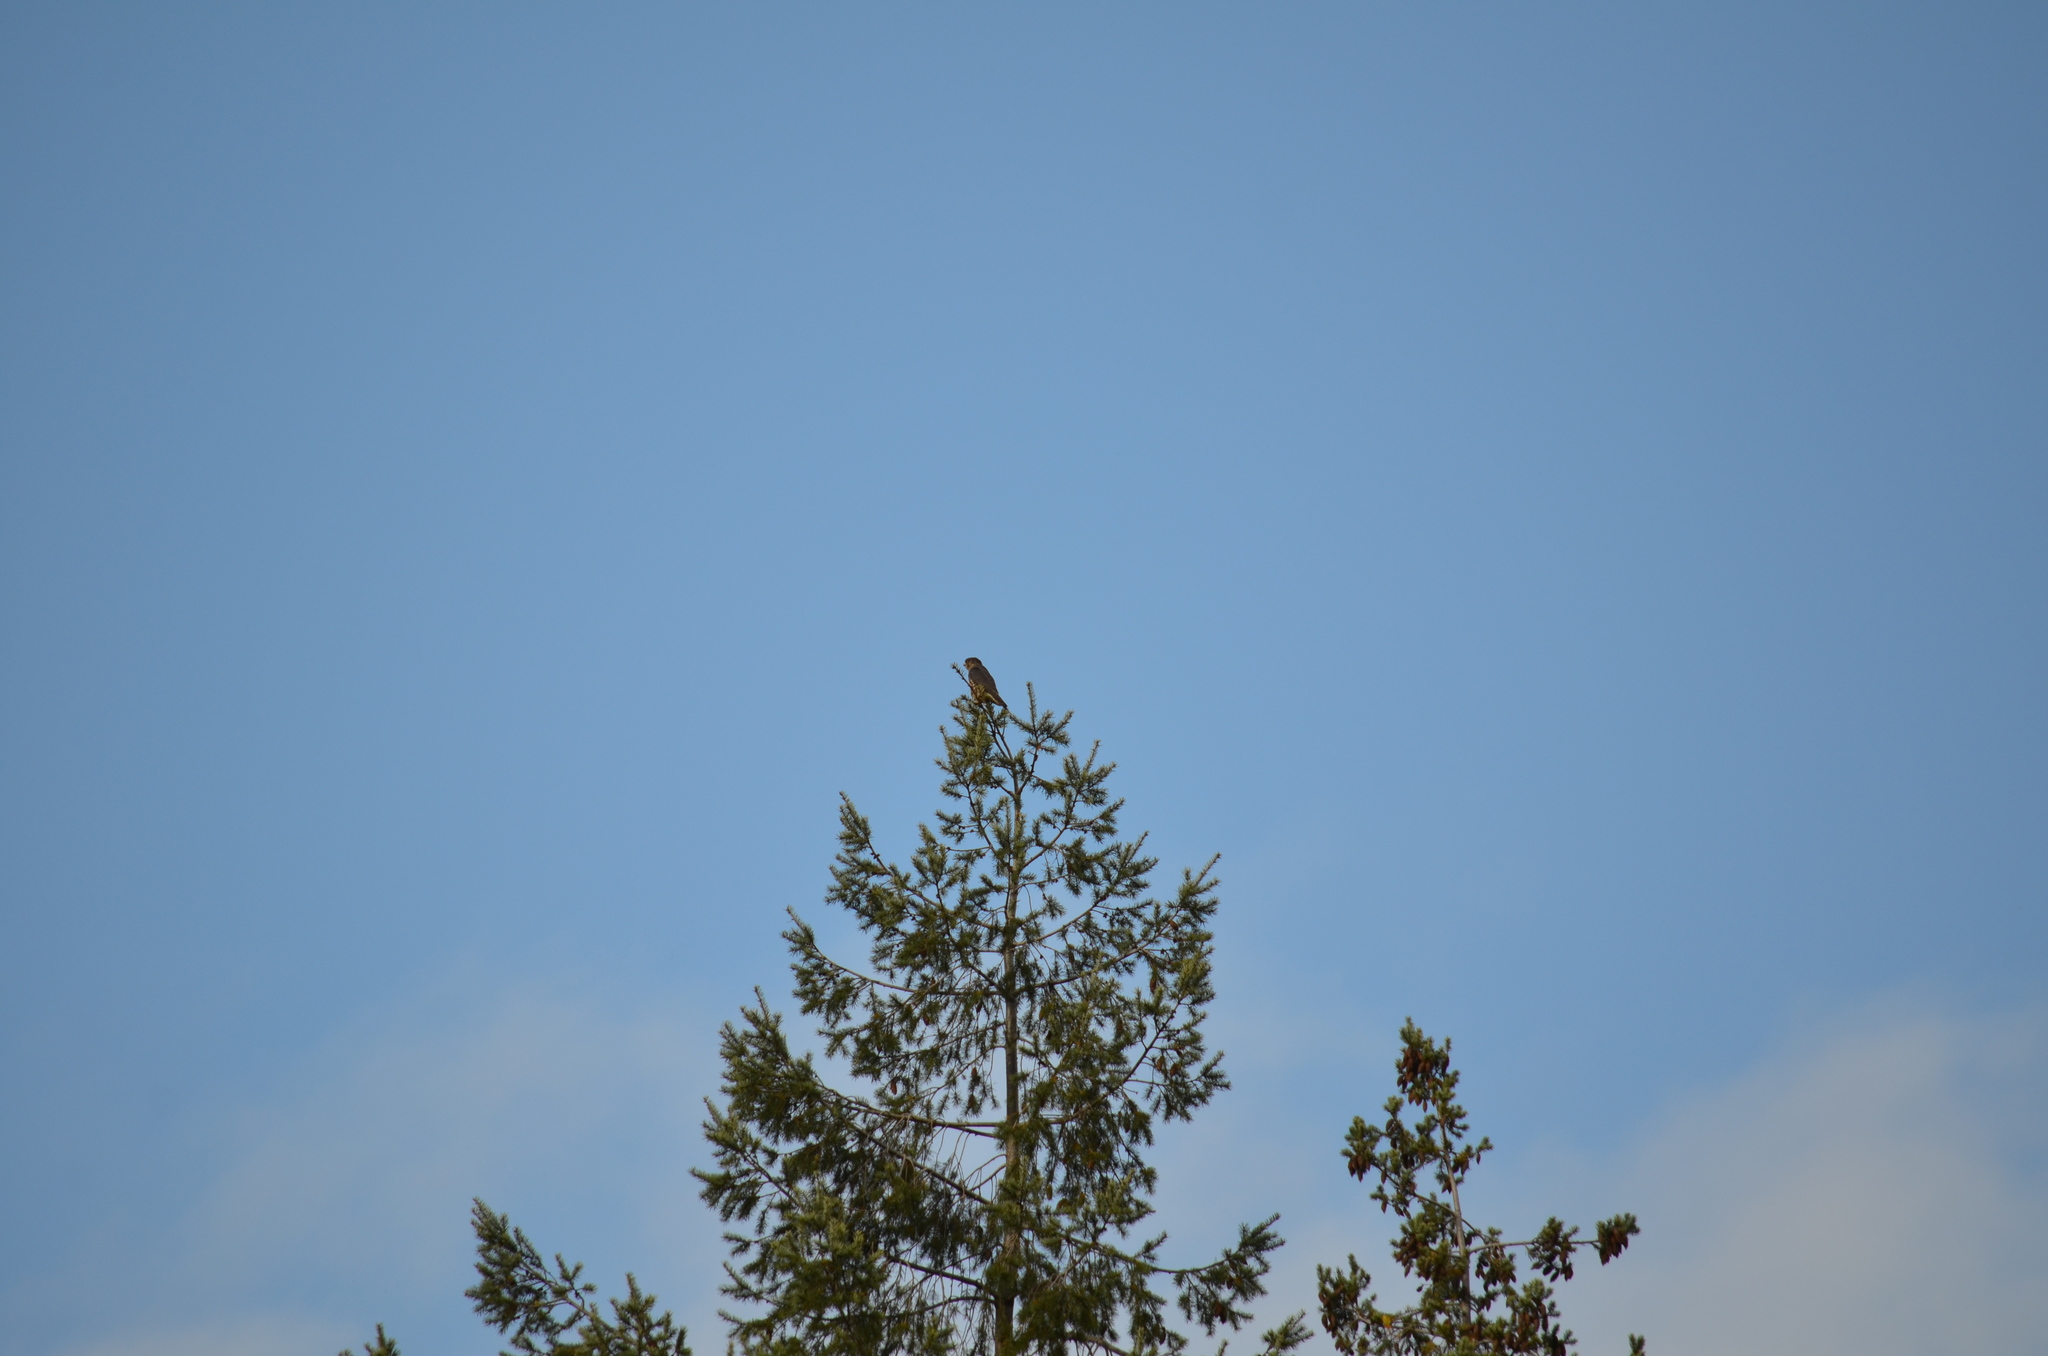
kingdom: Animalia
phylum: Chordata
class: Aves
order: Falconiformes
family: Falconidae
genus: Falco
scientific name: Falco columbarius
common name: Merlin
